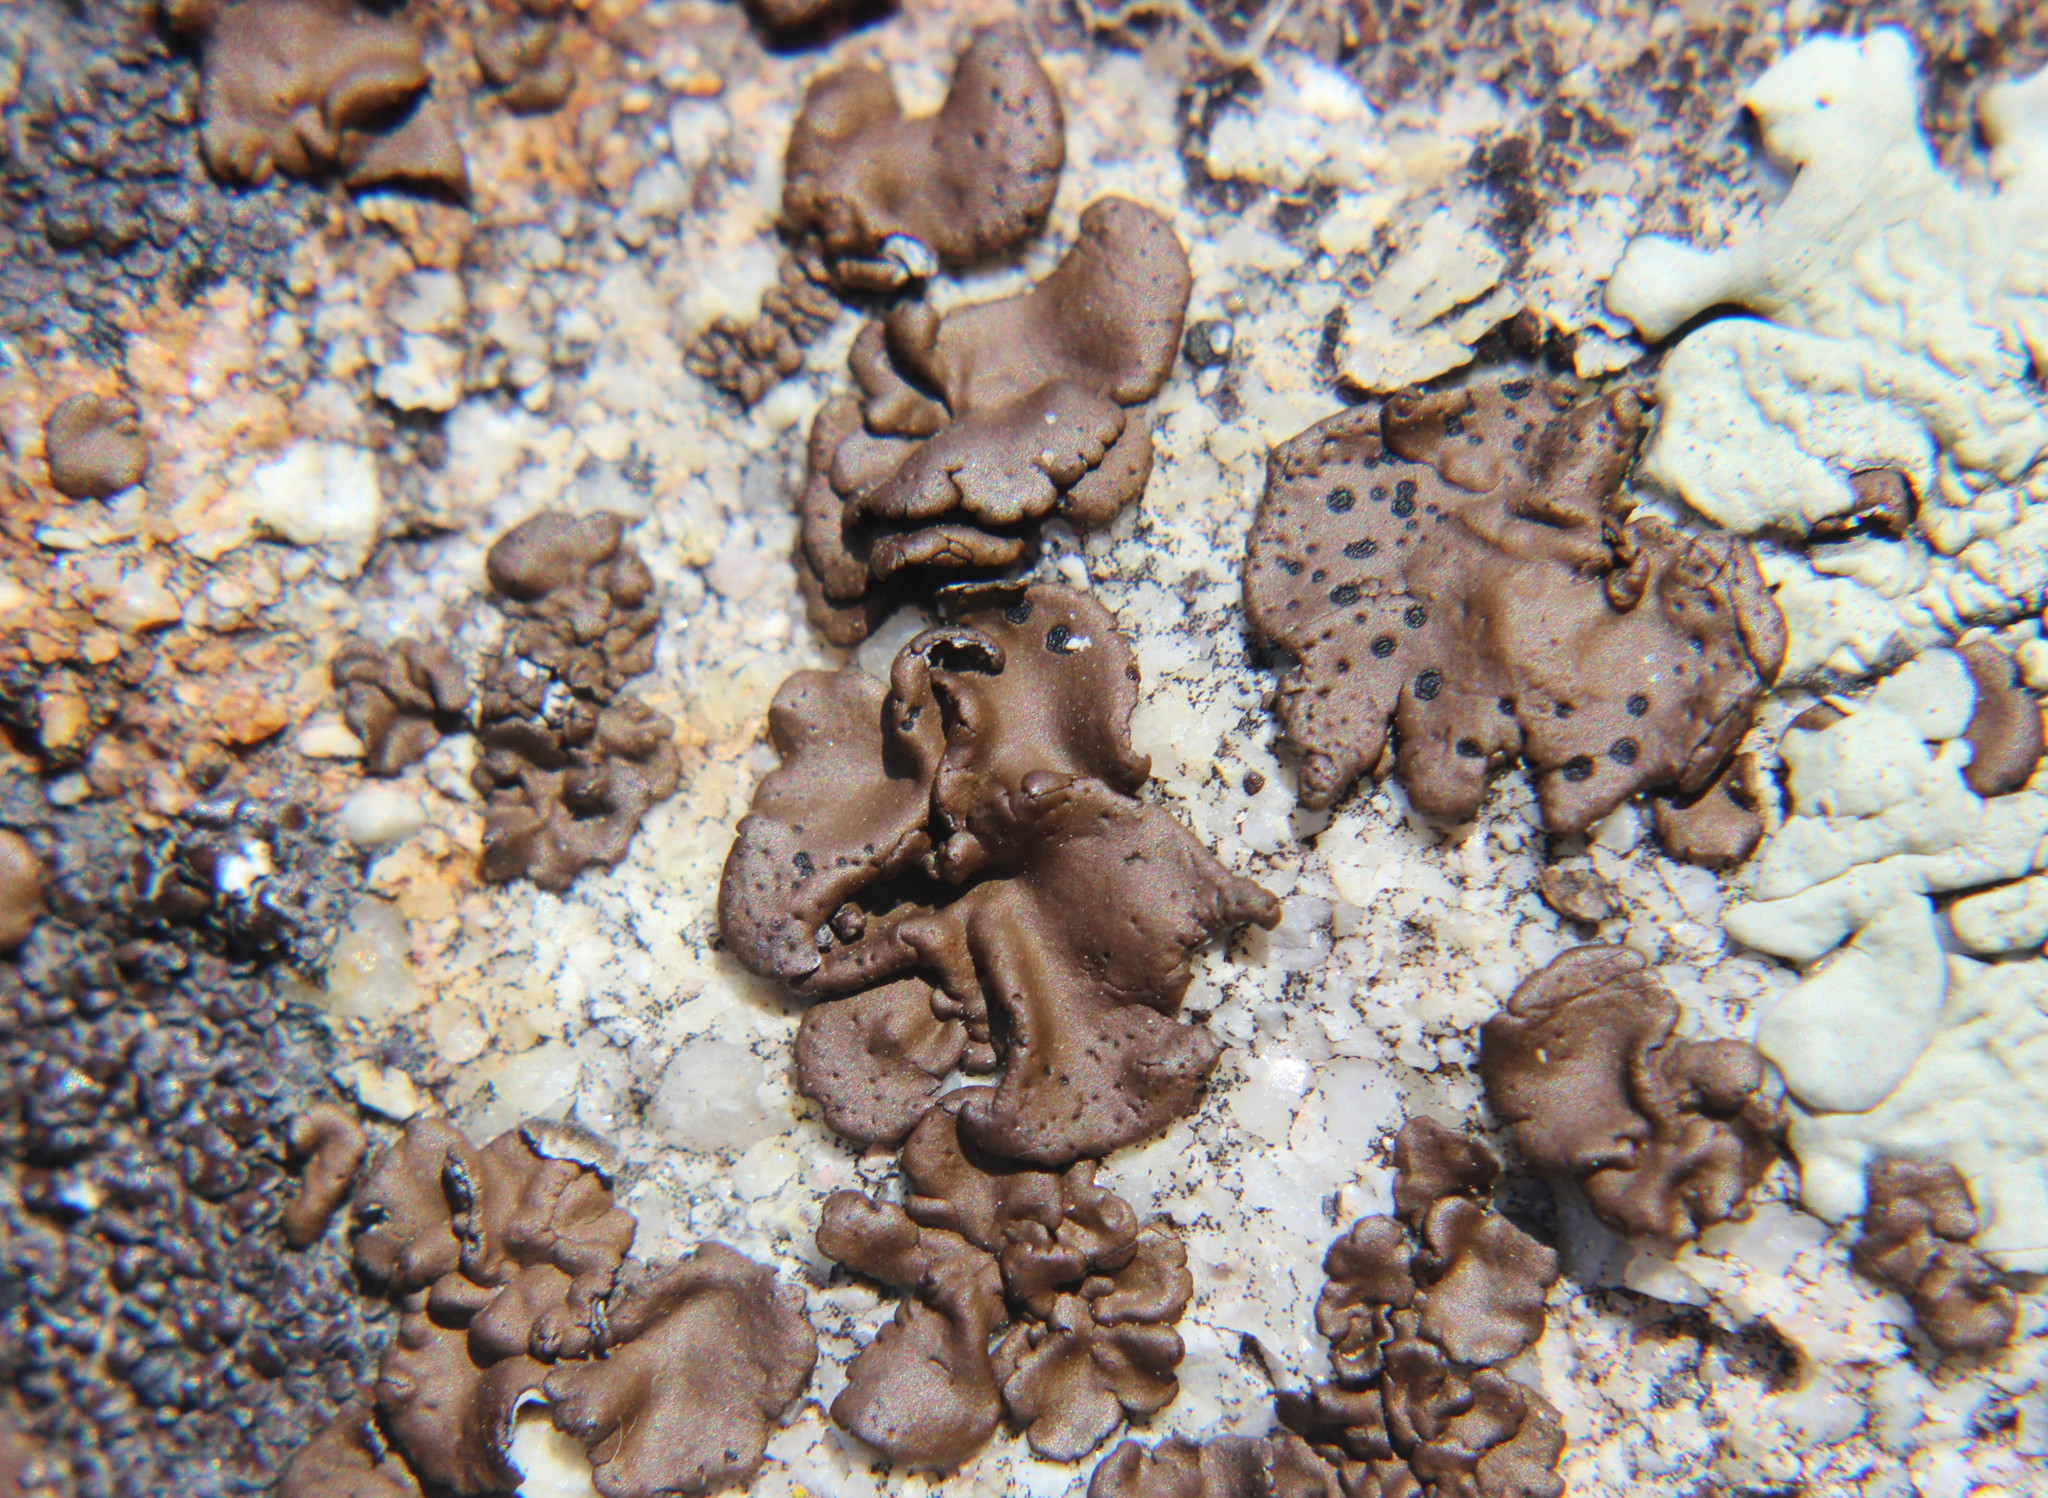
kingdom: Fungi
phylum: Ascomycota
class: Lecanoromycetes
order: Umbilicariales
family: Umbilicariaceae
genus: Umbilicaria
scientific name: Umbilicaria phaea
